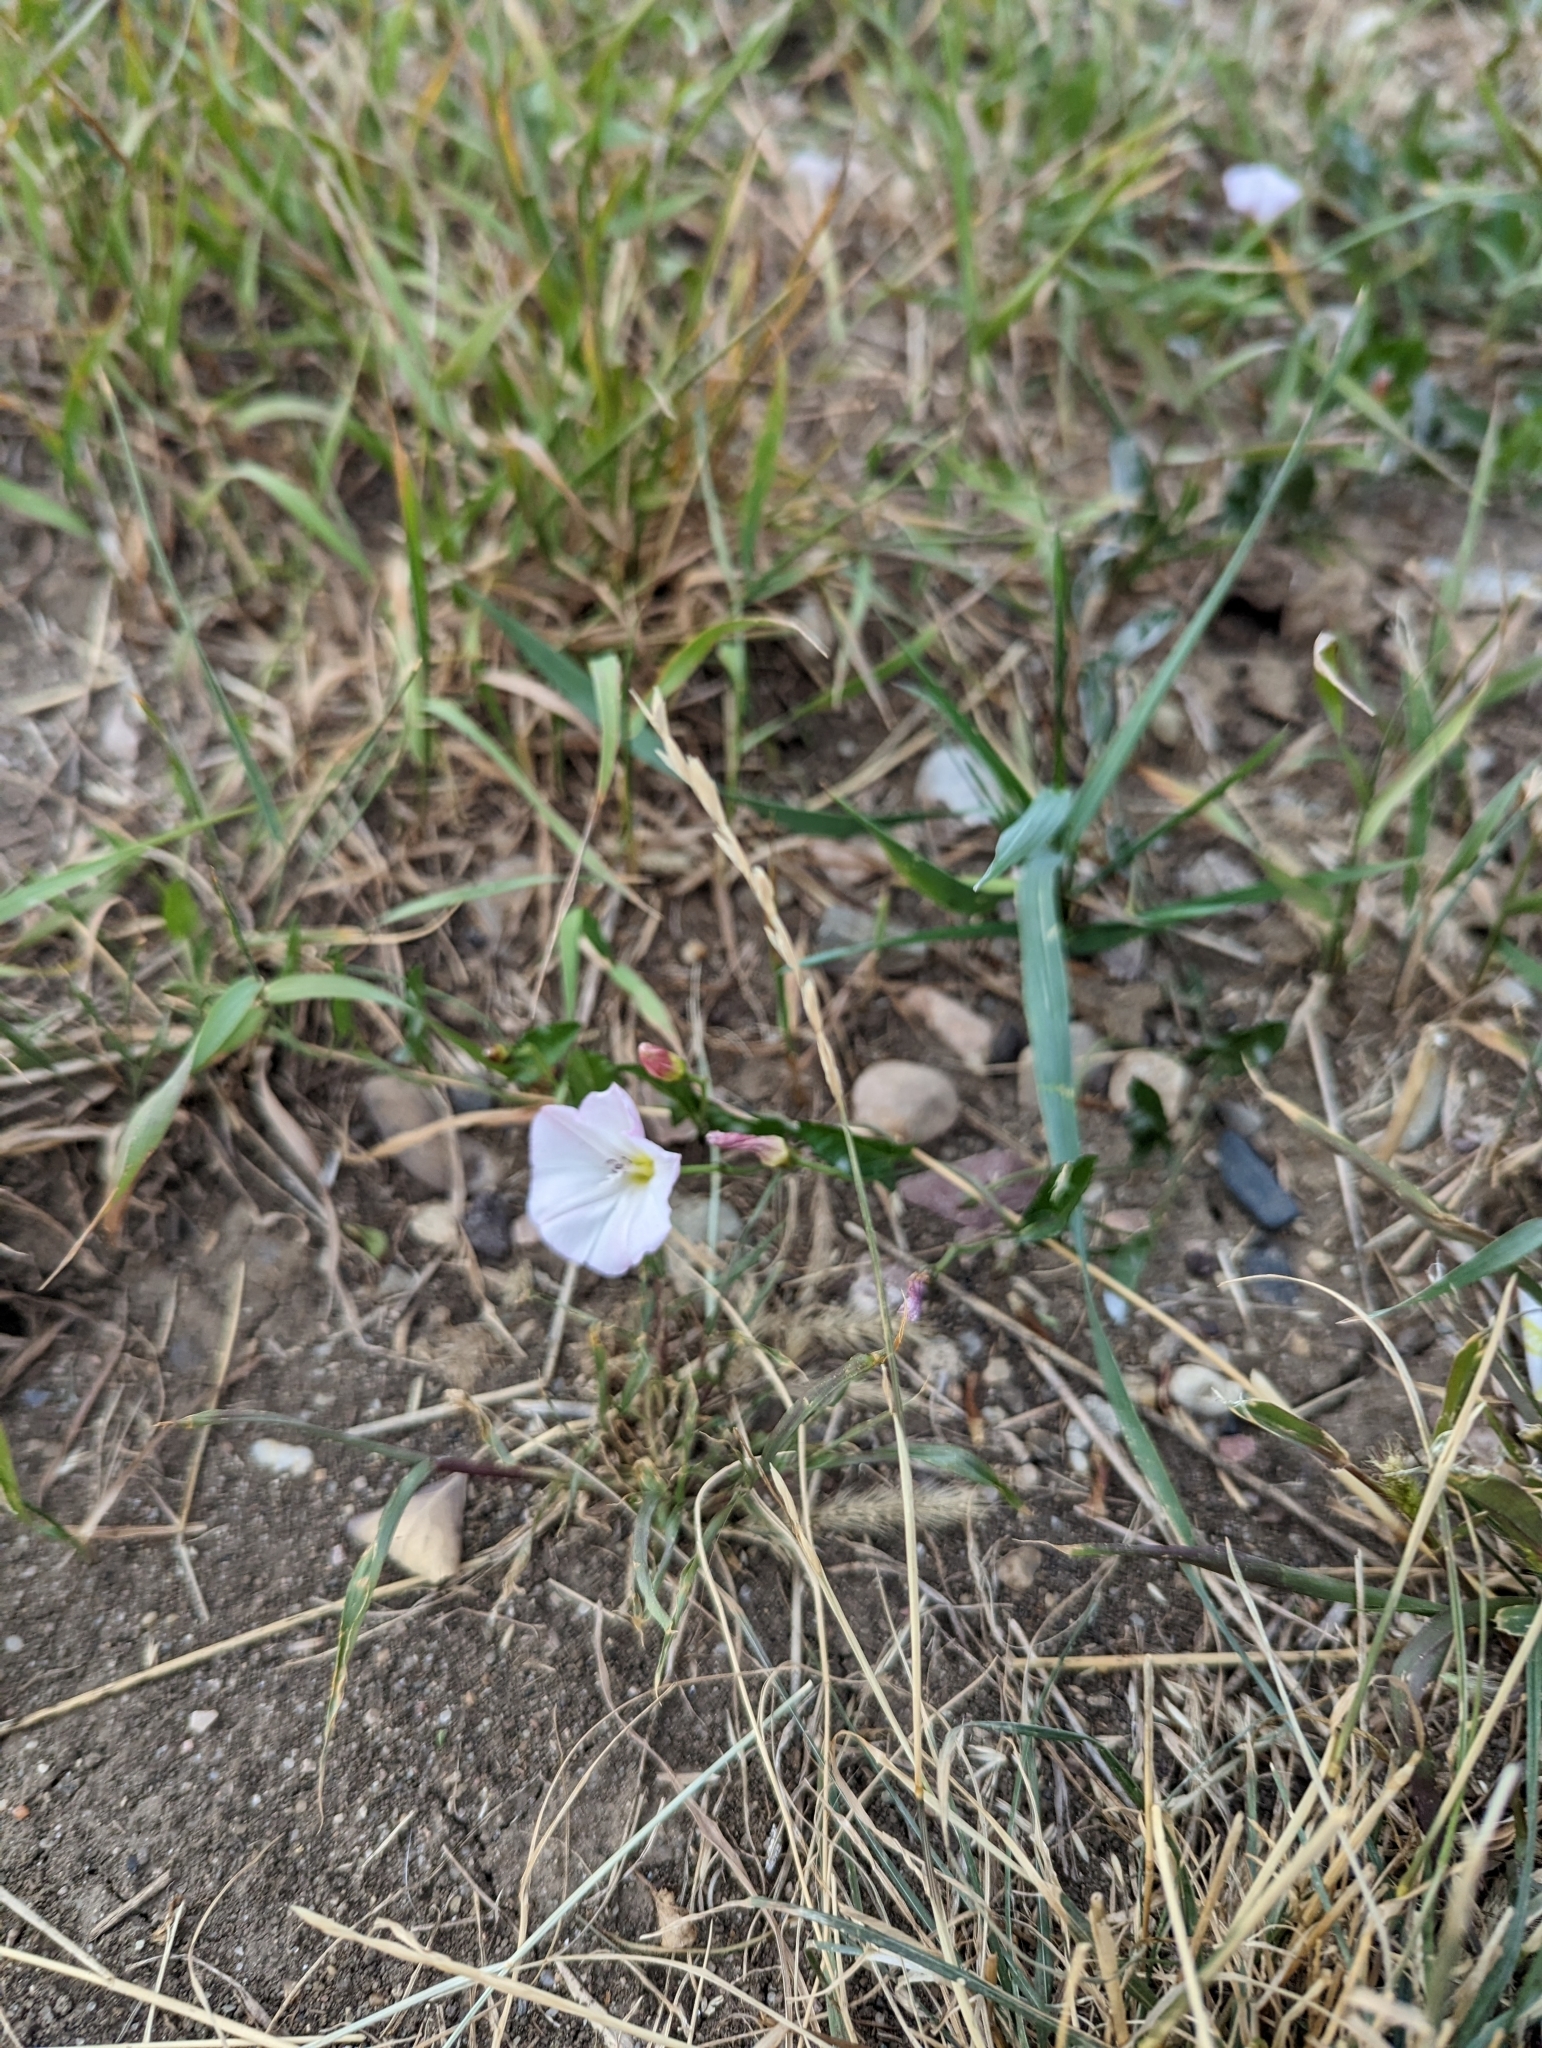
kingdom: Plantae
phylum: Tracheophyta
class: Magnoliopsida
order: Solanales
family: Convolvulaceae
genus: Convolvulus
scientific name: Convolvulus arvensis
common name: Field bindweed
